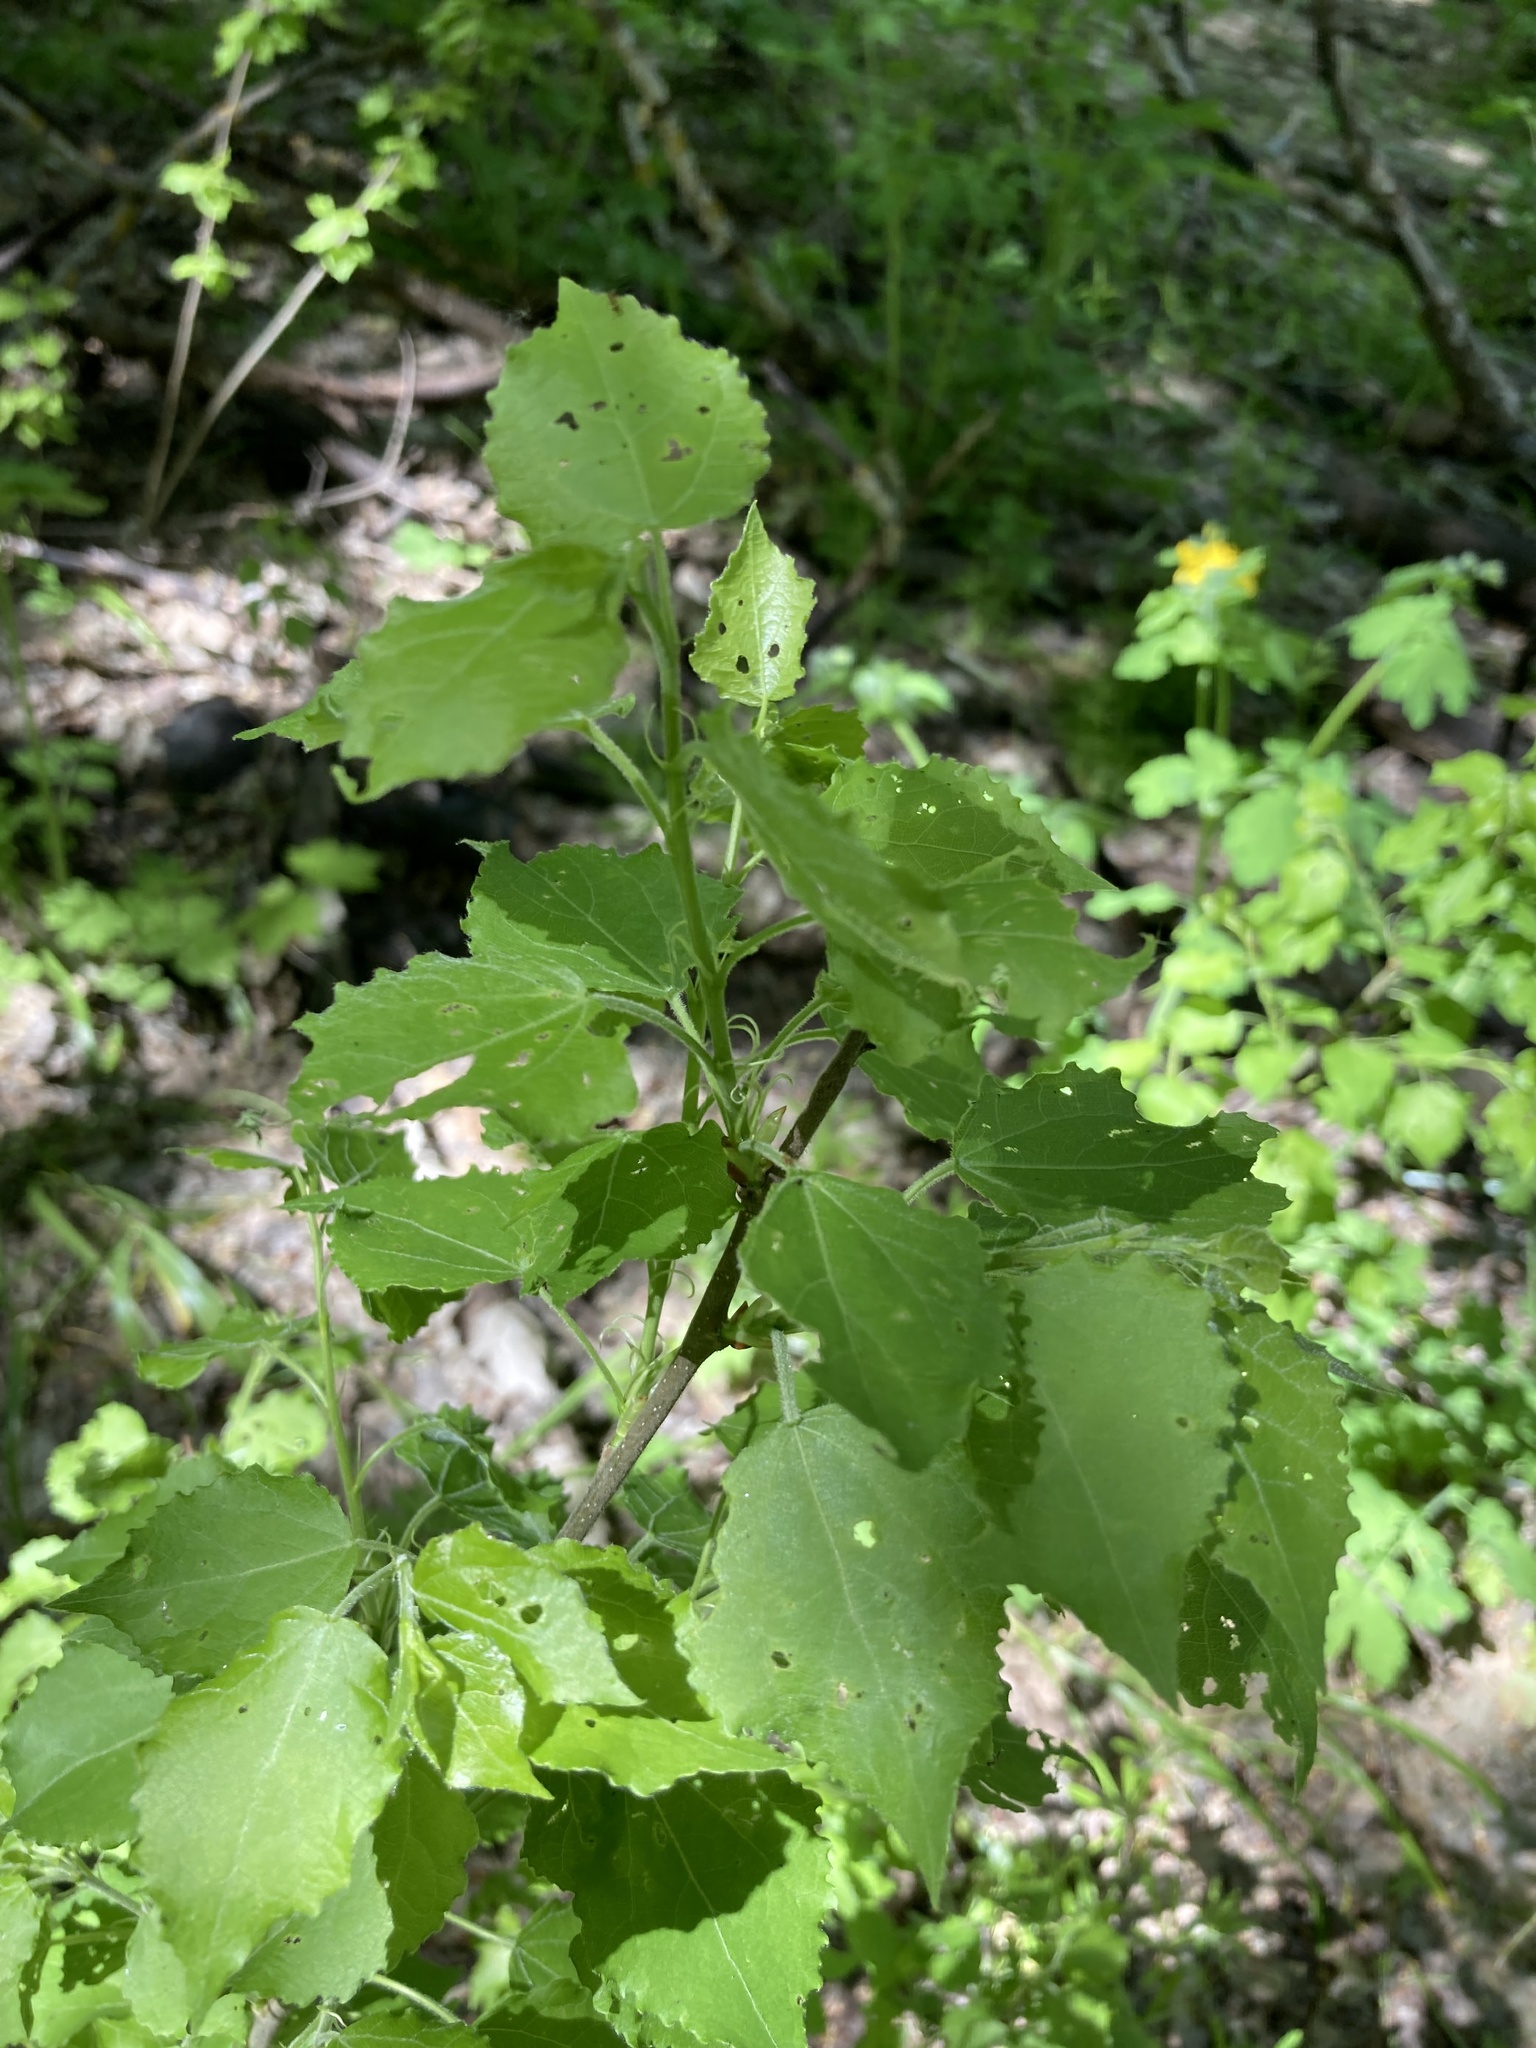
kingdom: Plantae
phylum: Tracheophyta
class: Magnoliopsida
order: Malpighiales
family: Salicaceae
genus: Populus
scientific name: Populus tremula
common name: European aspen
